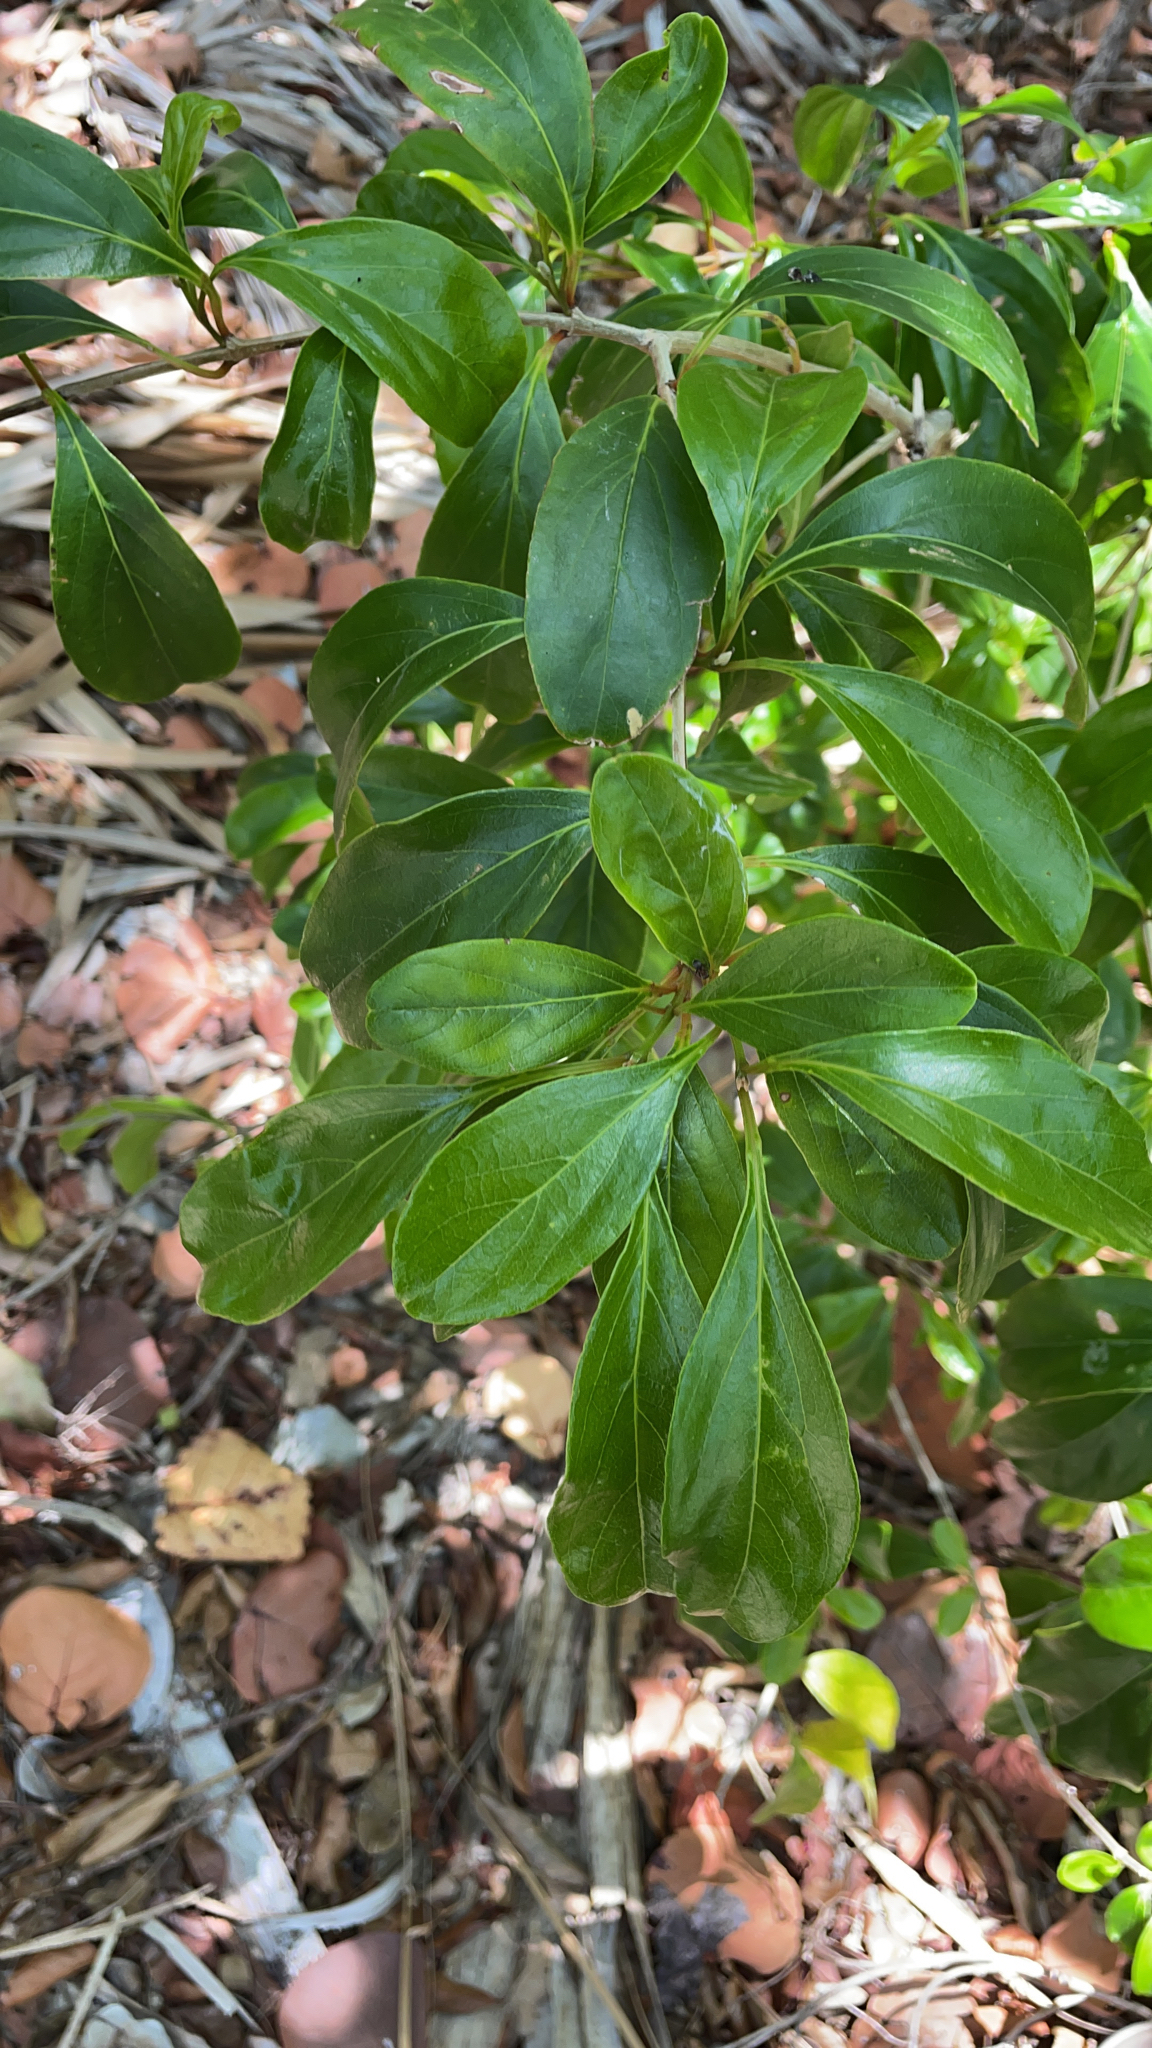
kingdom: Plantae
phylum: Tracheophyta
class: Magnoliopsida
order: Lamiales
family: Verbenaceae
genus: Citharexylum
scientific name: Citharexylum spinosum
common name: Fiddlewood
